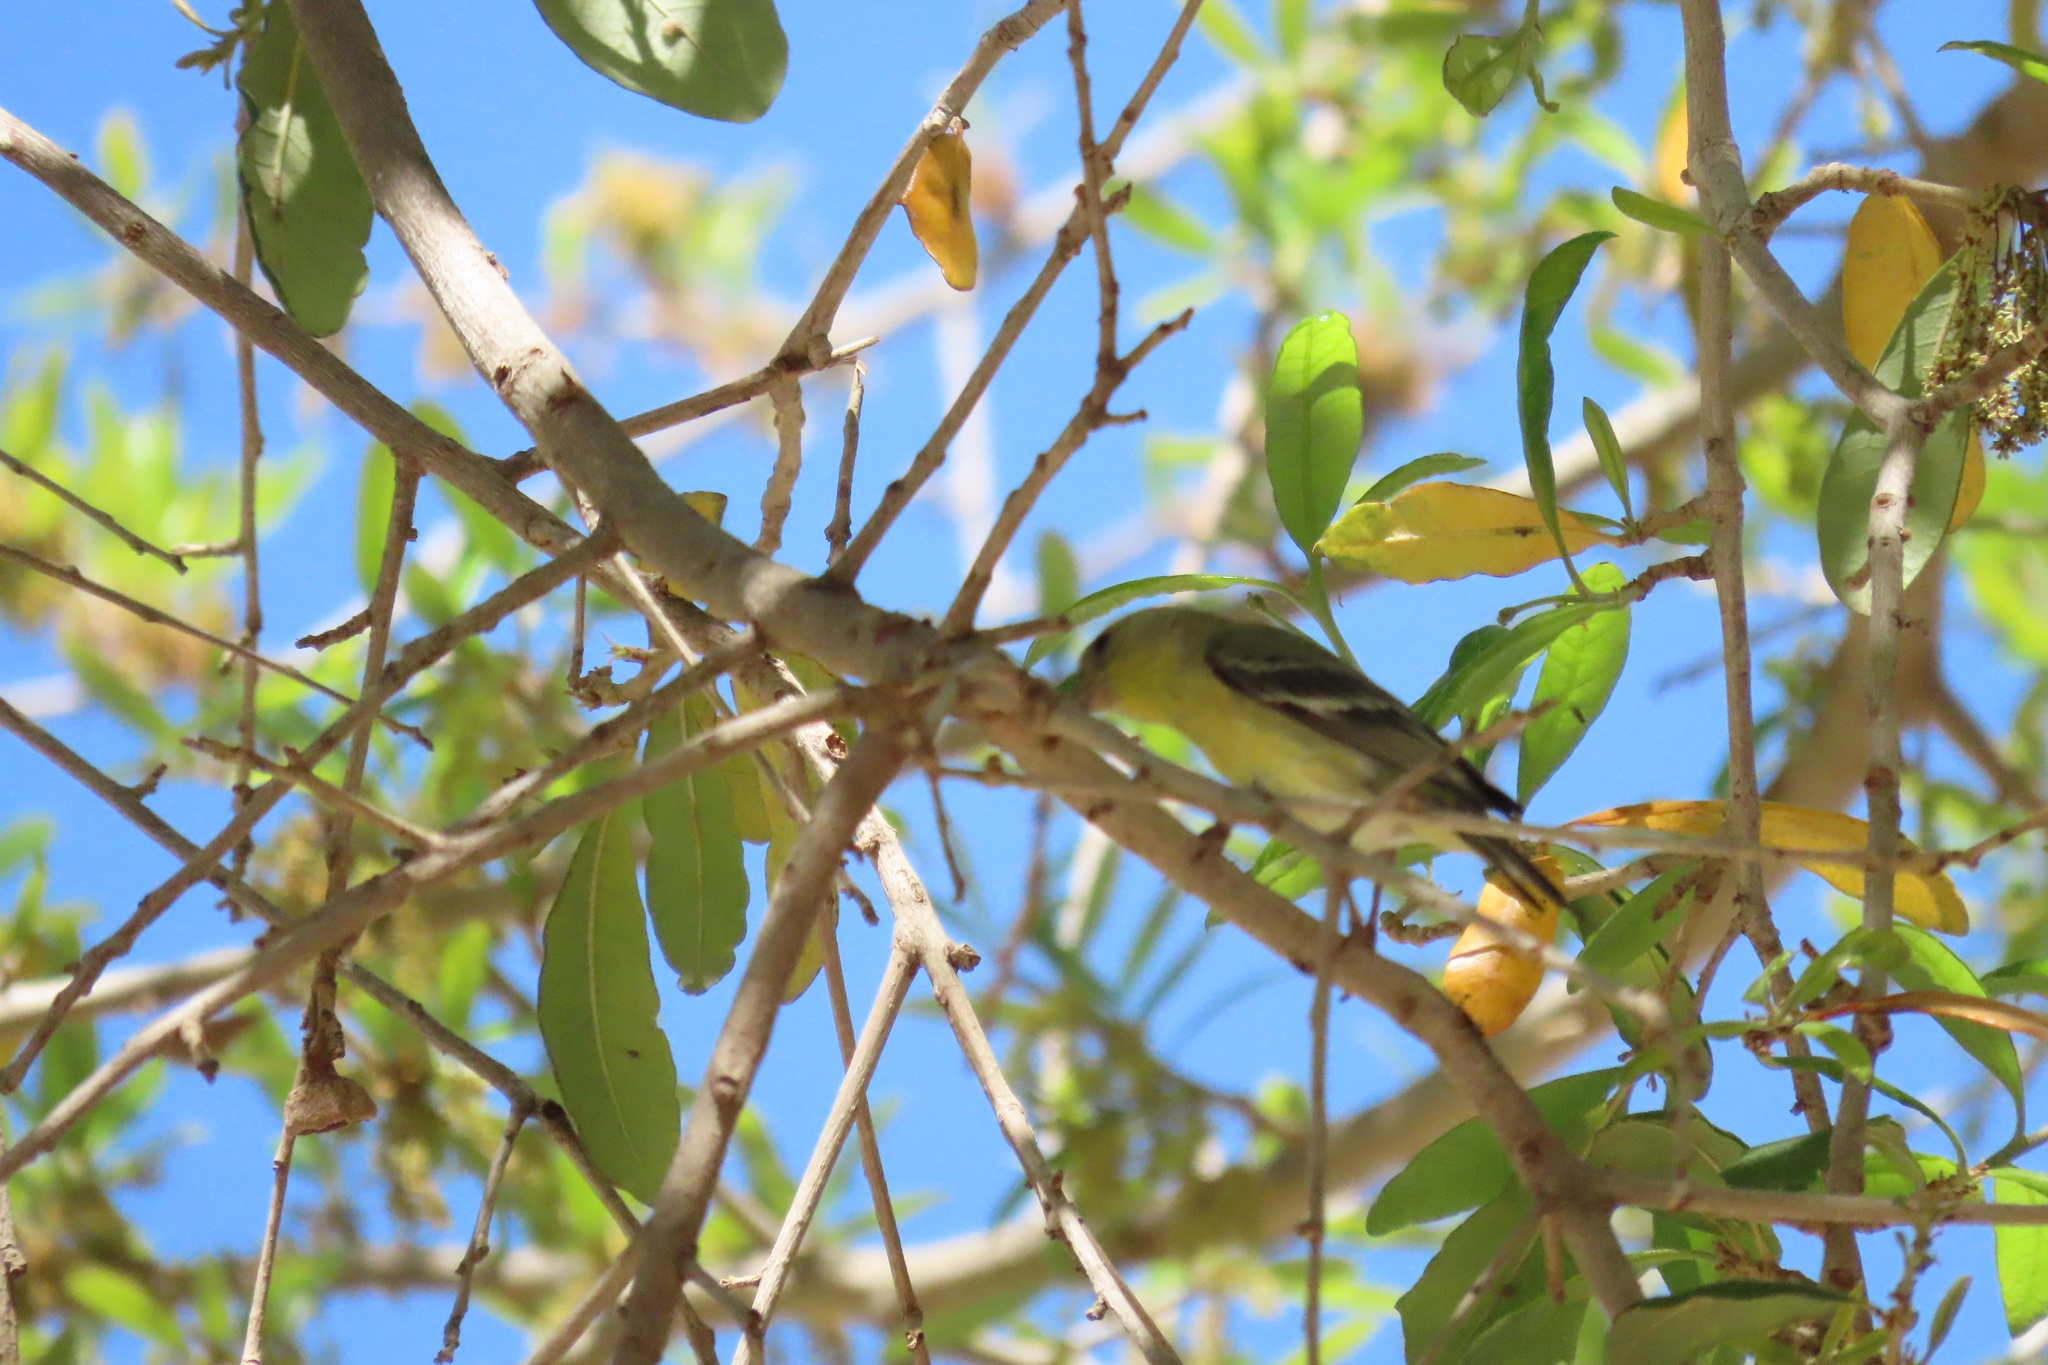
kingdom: Animalia
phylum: Chordata
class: Aves
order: Passeriformes
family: Fringillidae
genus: Spinus
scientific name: Spinus psaltria
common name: Lesser goldfinch
